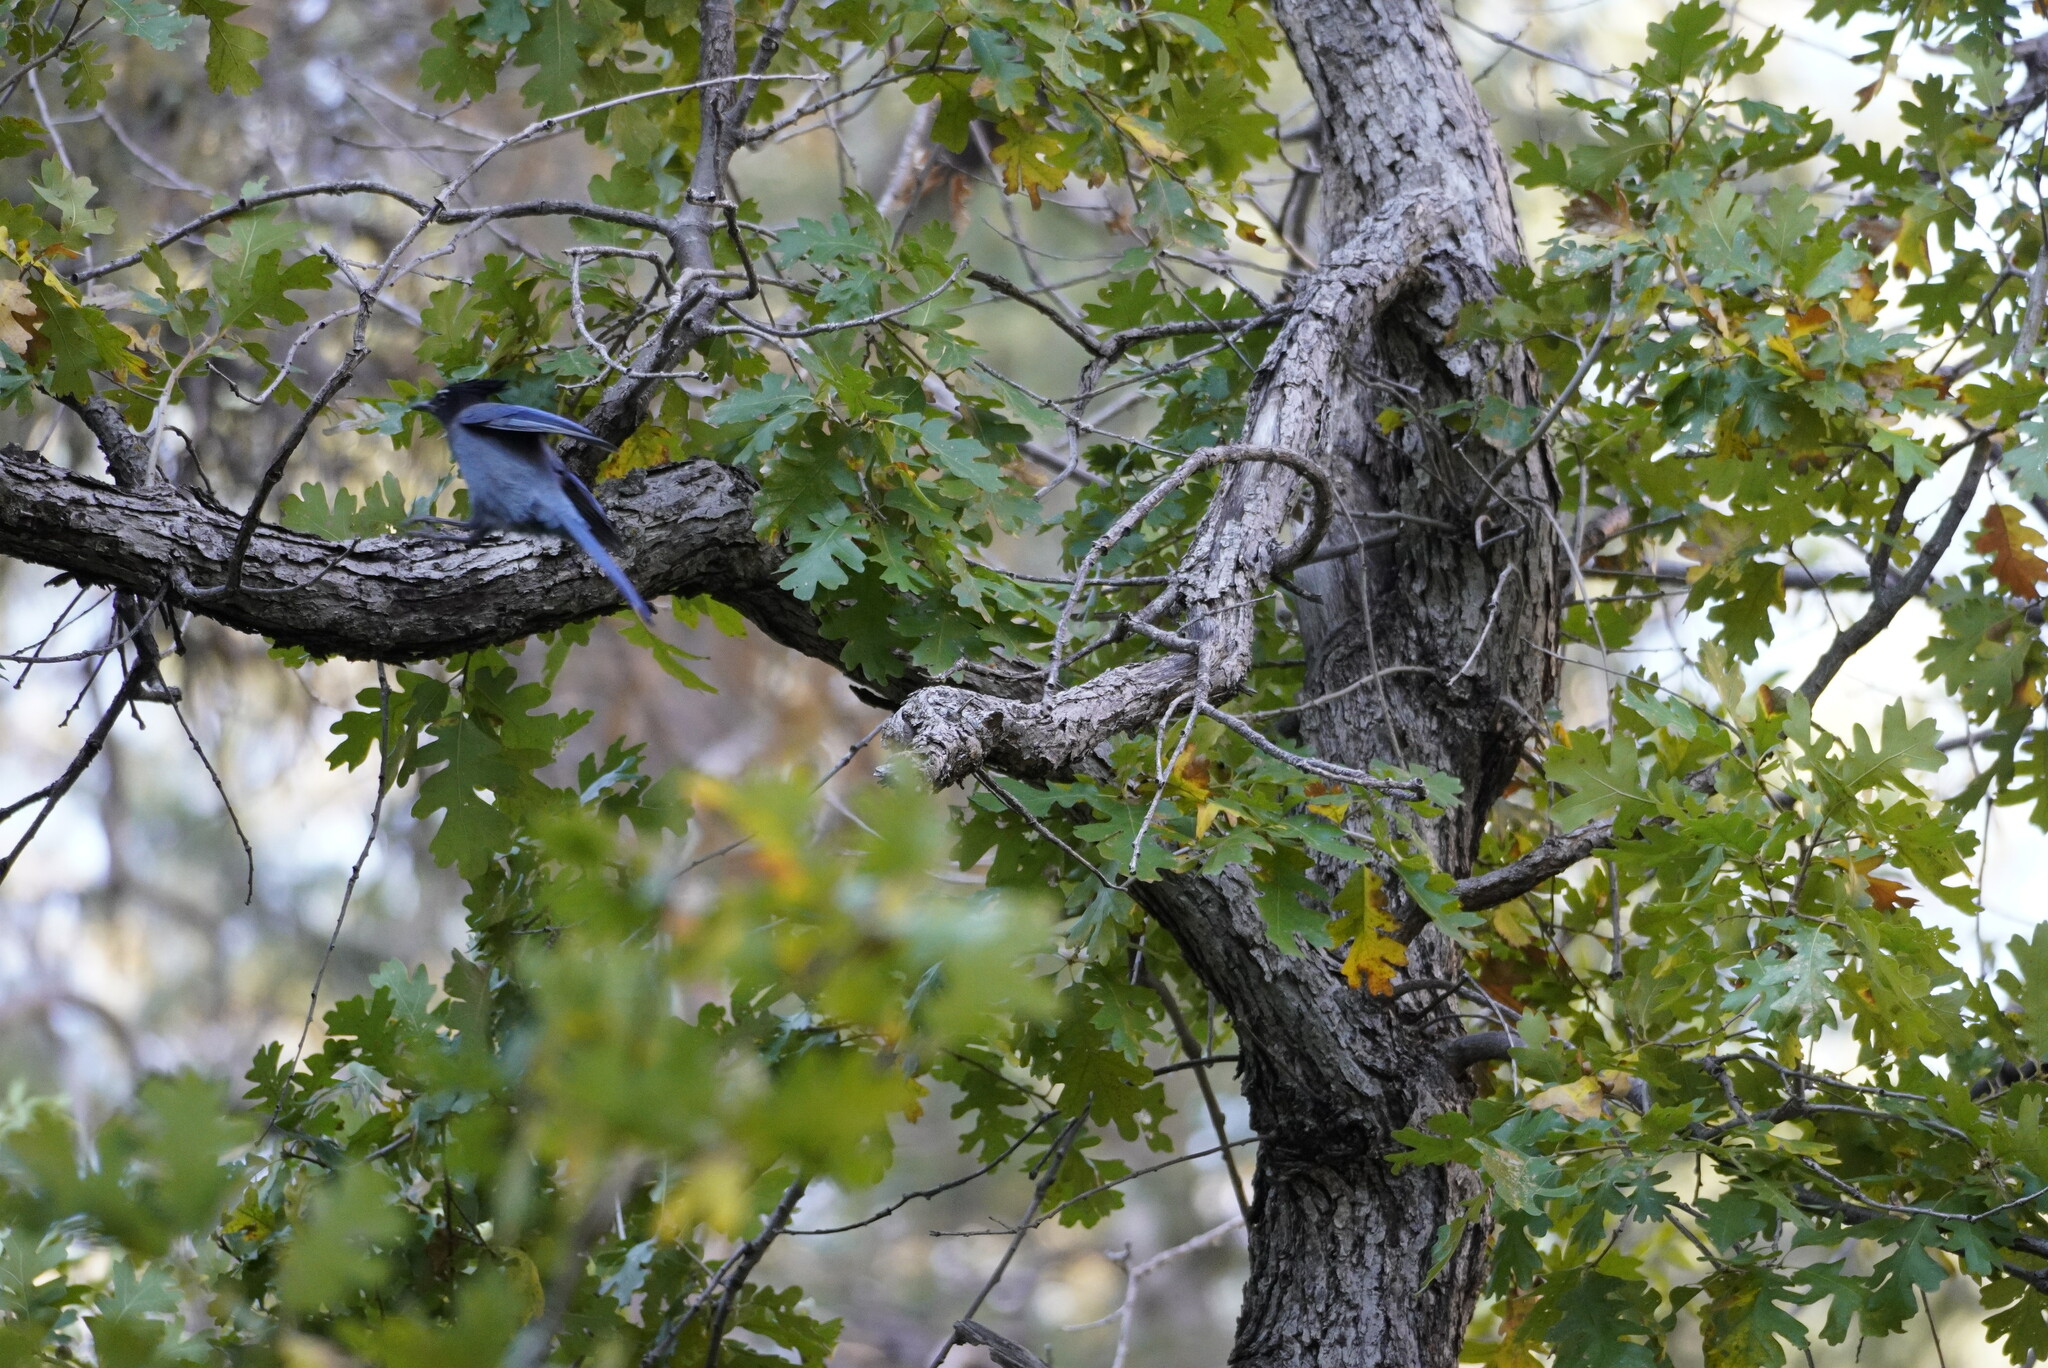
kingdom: Animalia
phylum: Chordata
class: Aves
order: Passeriformes
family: Corvidae
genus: Cyanocitta
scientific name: Cyanocitta stelleri
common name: Steller's jay
